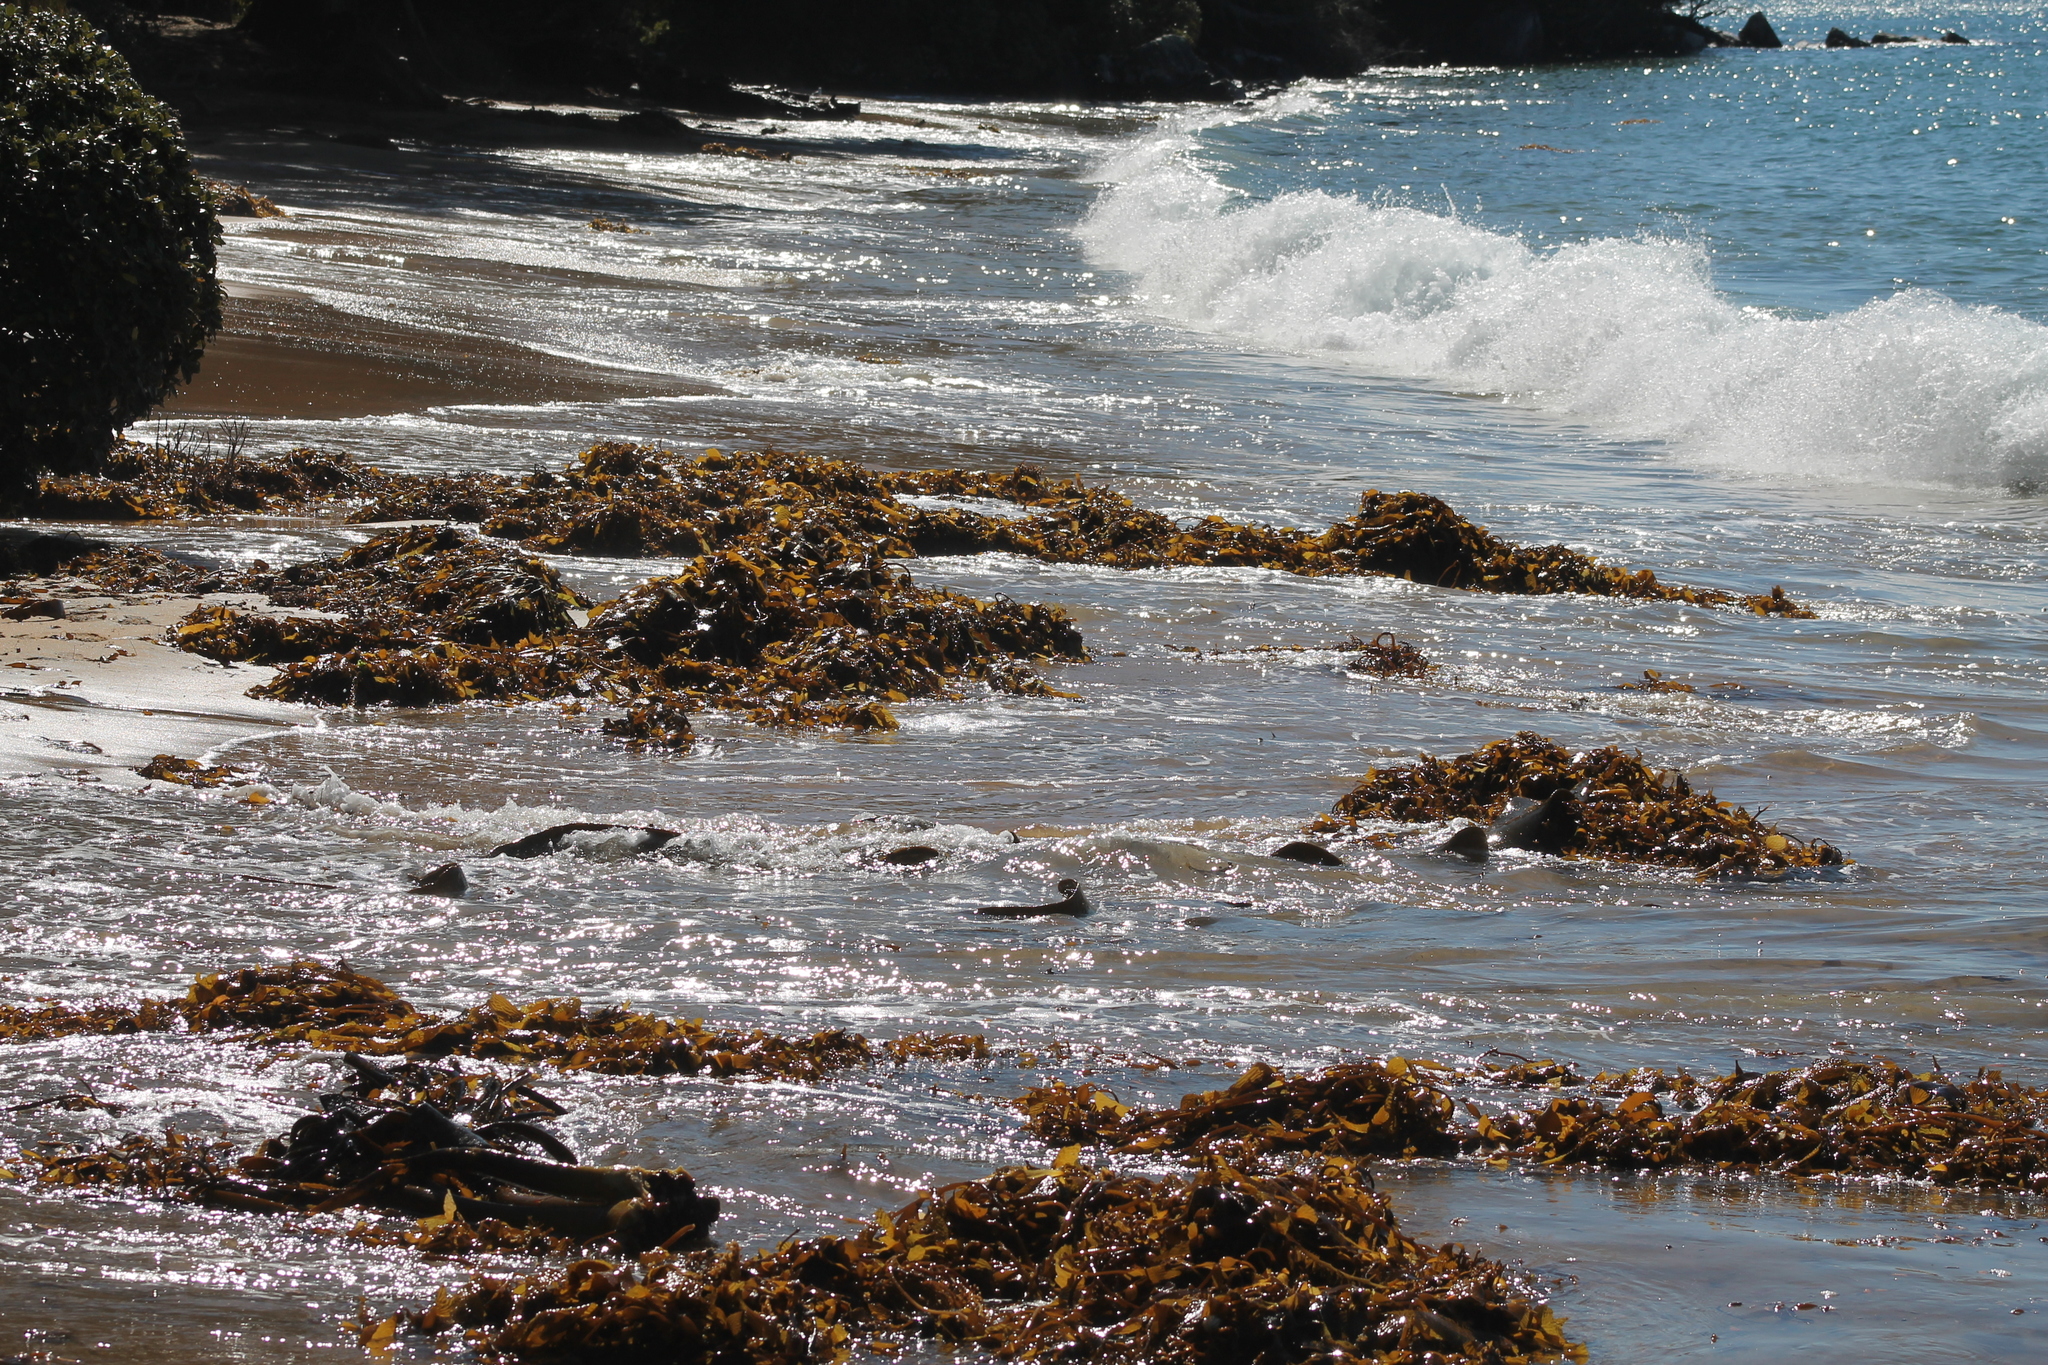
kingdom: Chromista
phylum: Ochrophyta
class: Phaeophyceae
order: Laminariales
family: Laminariaceae
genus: Macrocystis
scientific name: Macrocystis pyrifera
